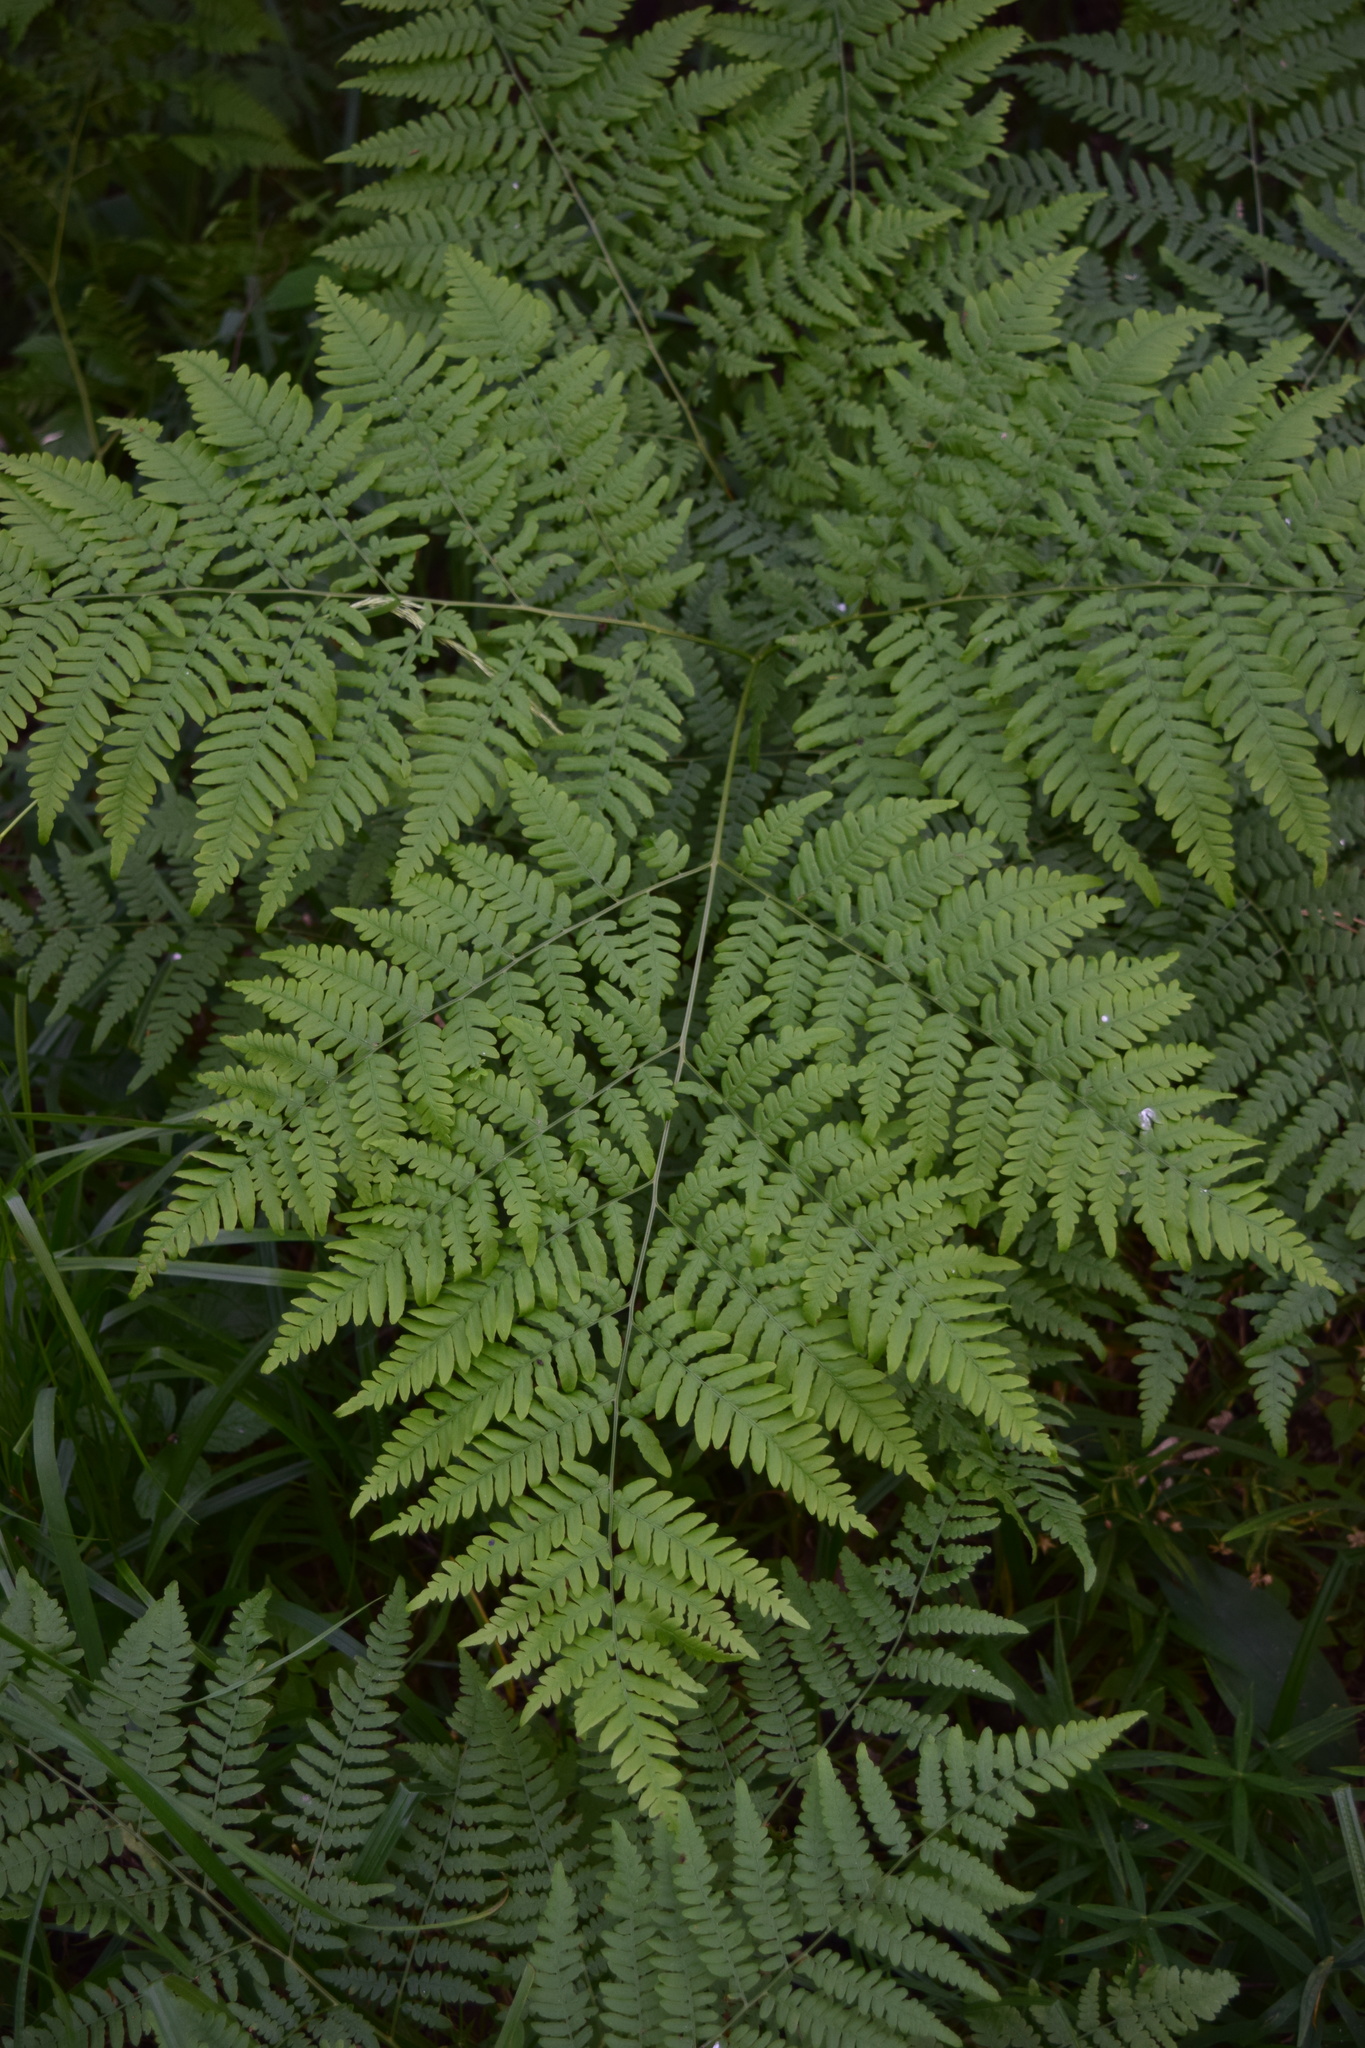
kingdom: Plantae
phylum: Tracheophyta
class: Polypodiopsida
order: Polypodiales
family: Dennstaedtiaceae
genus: Pteridium
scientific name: Pteridium aquilinum
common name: Bracken
